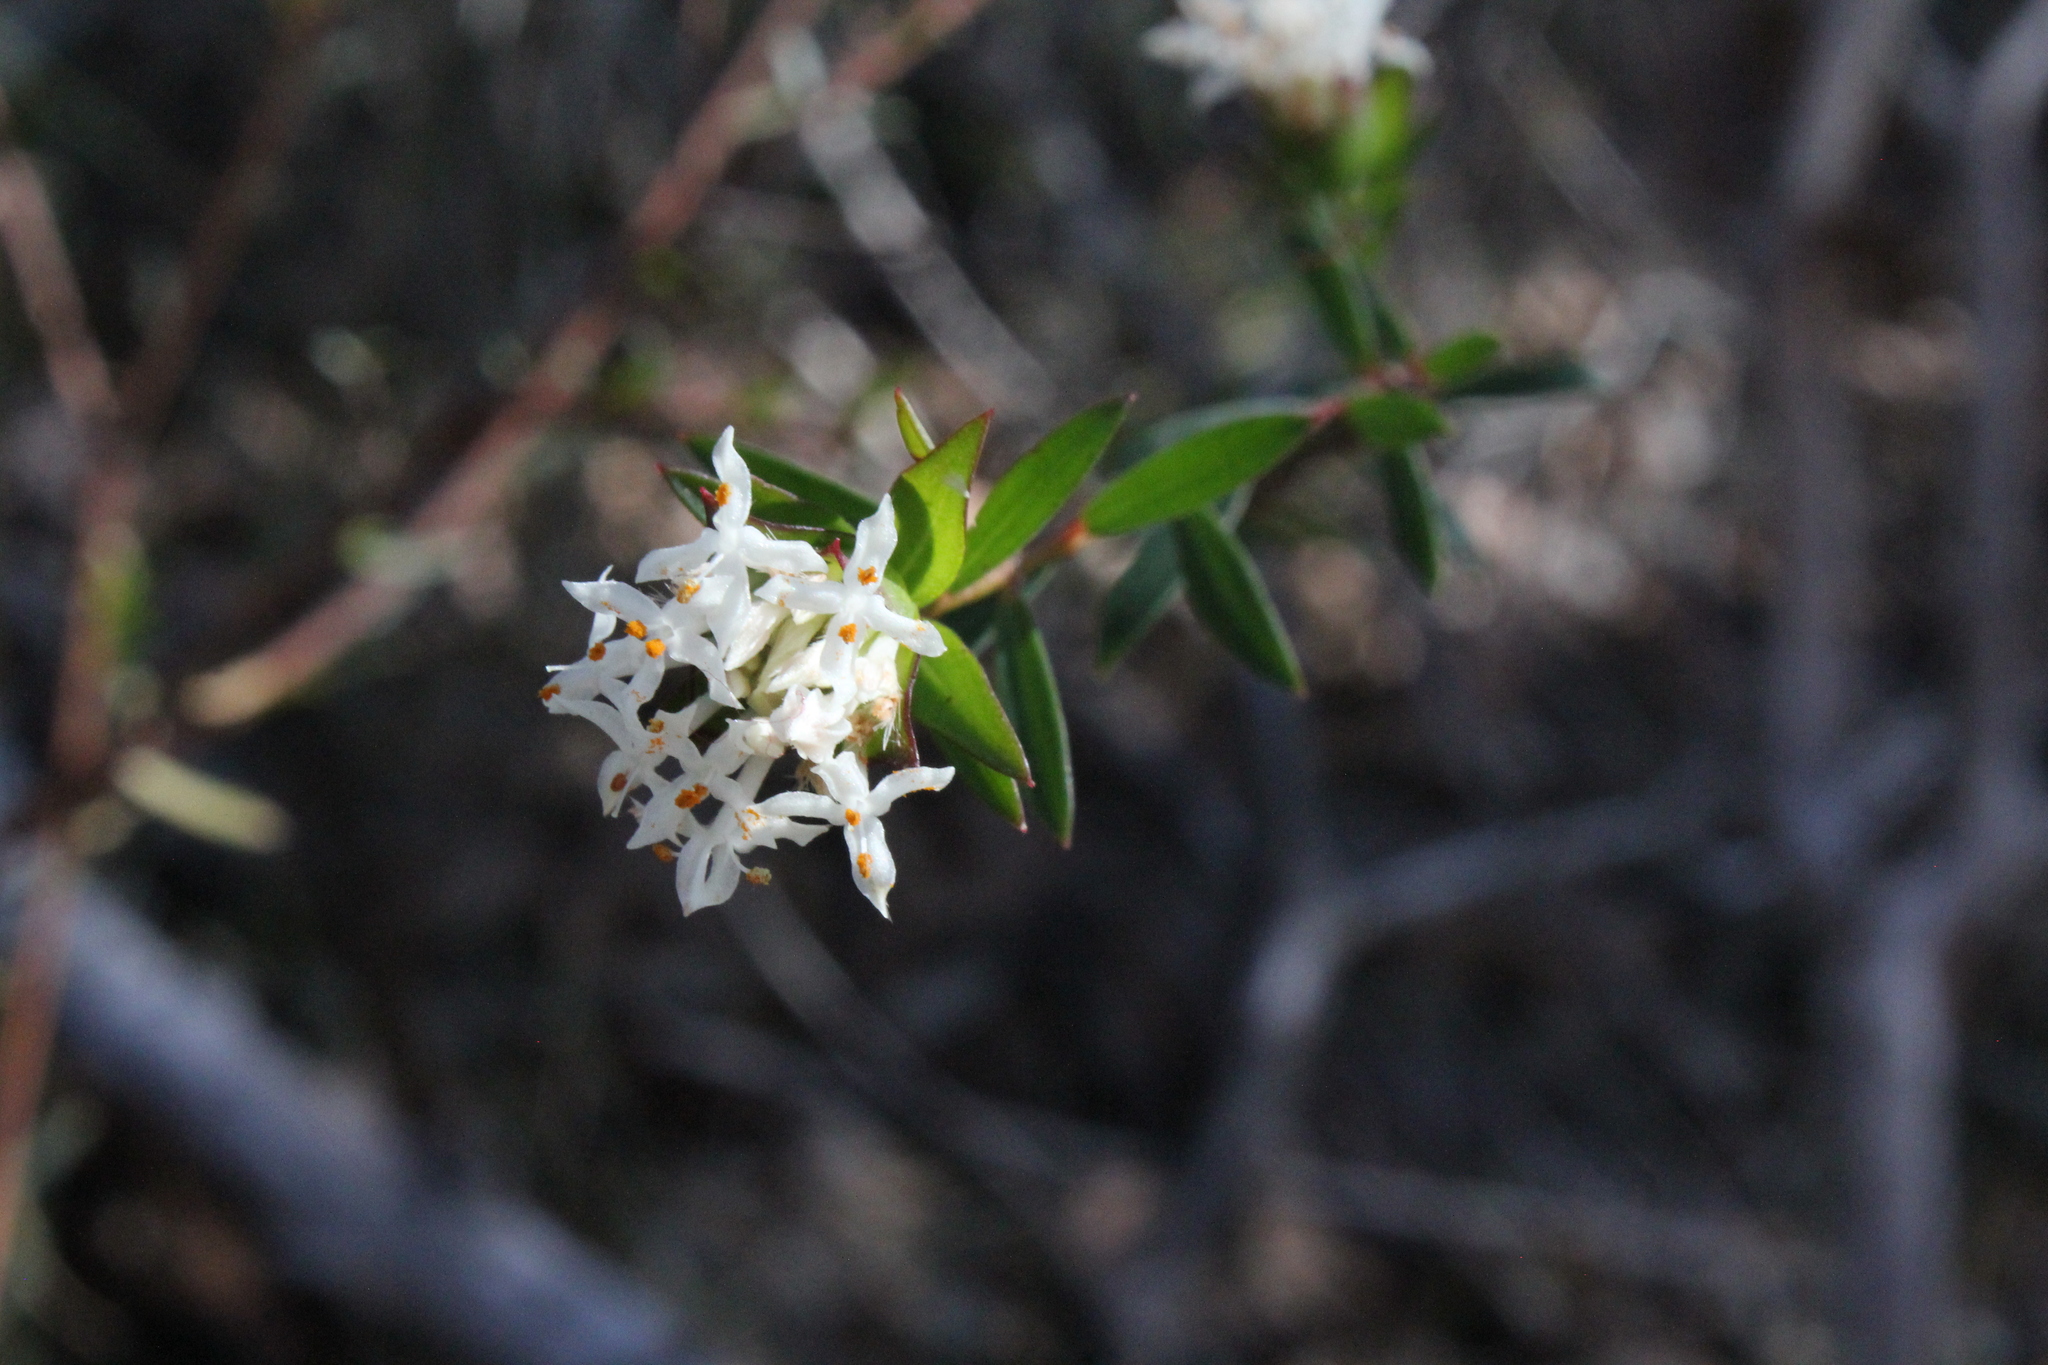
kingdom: Plantae
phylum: Tracheophyta
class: Magnoliopsida
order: Malvales
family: Thymelaeaceae
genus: Pimelea
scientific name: Pimelea linifolia
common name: Queen-of-the-bush
